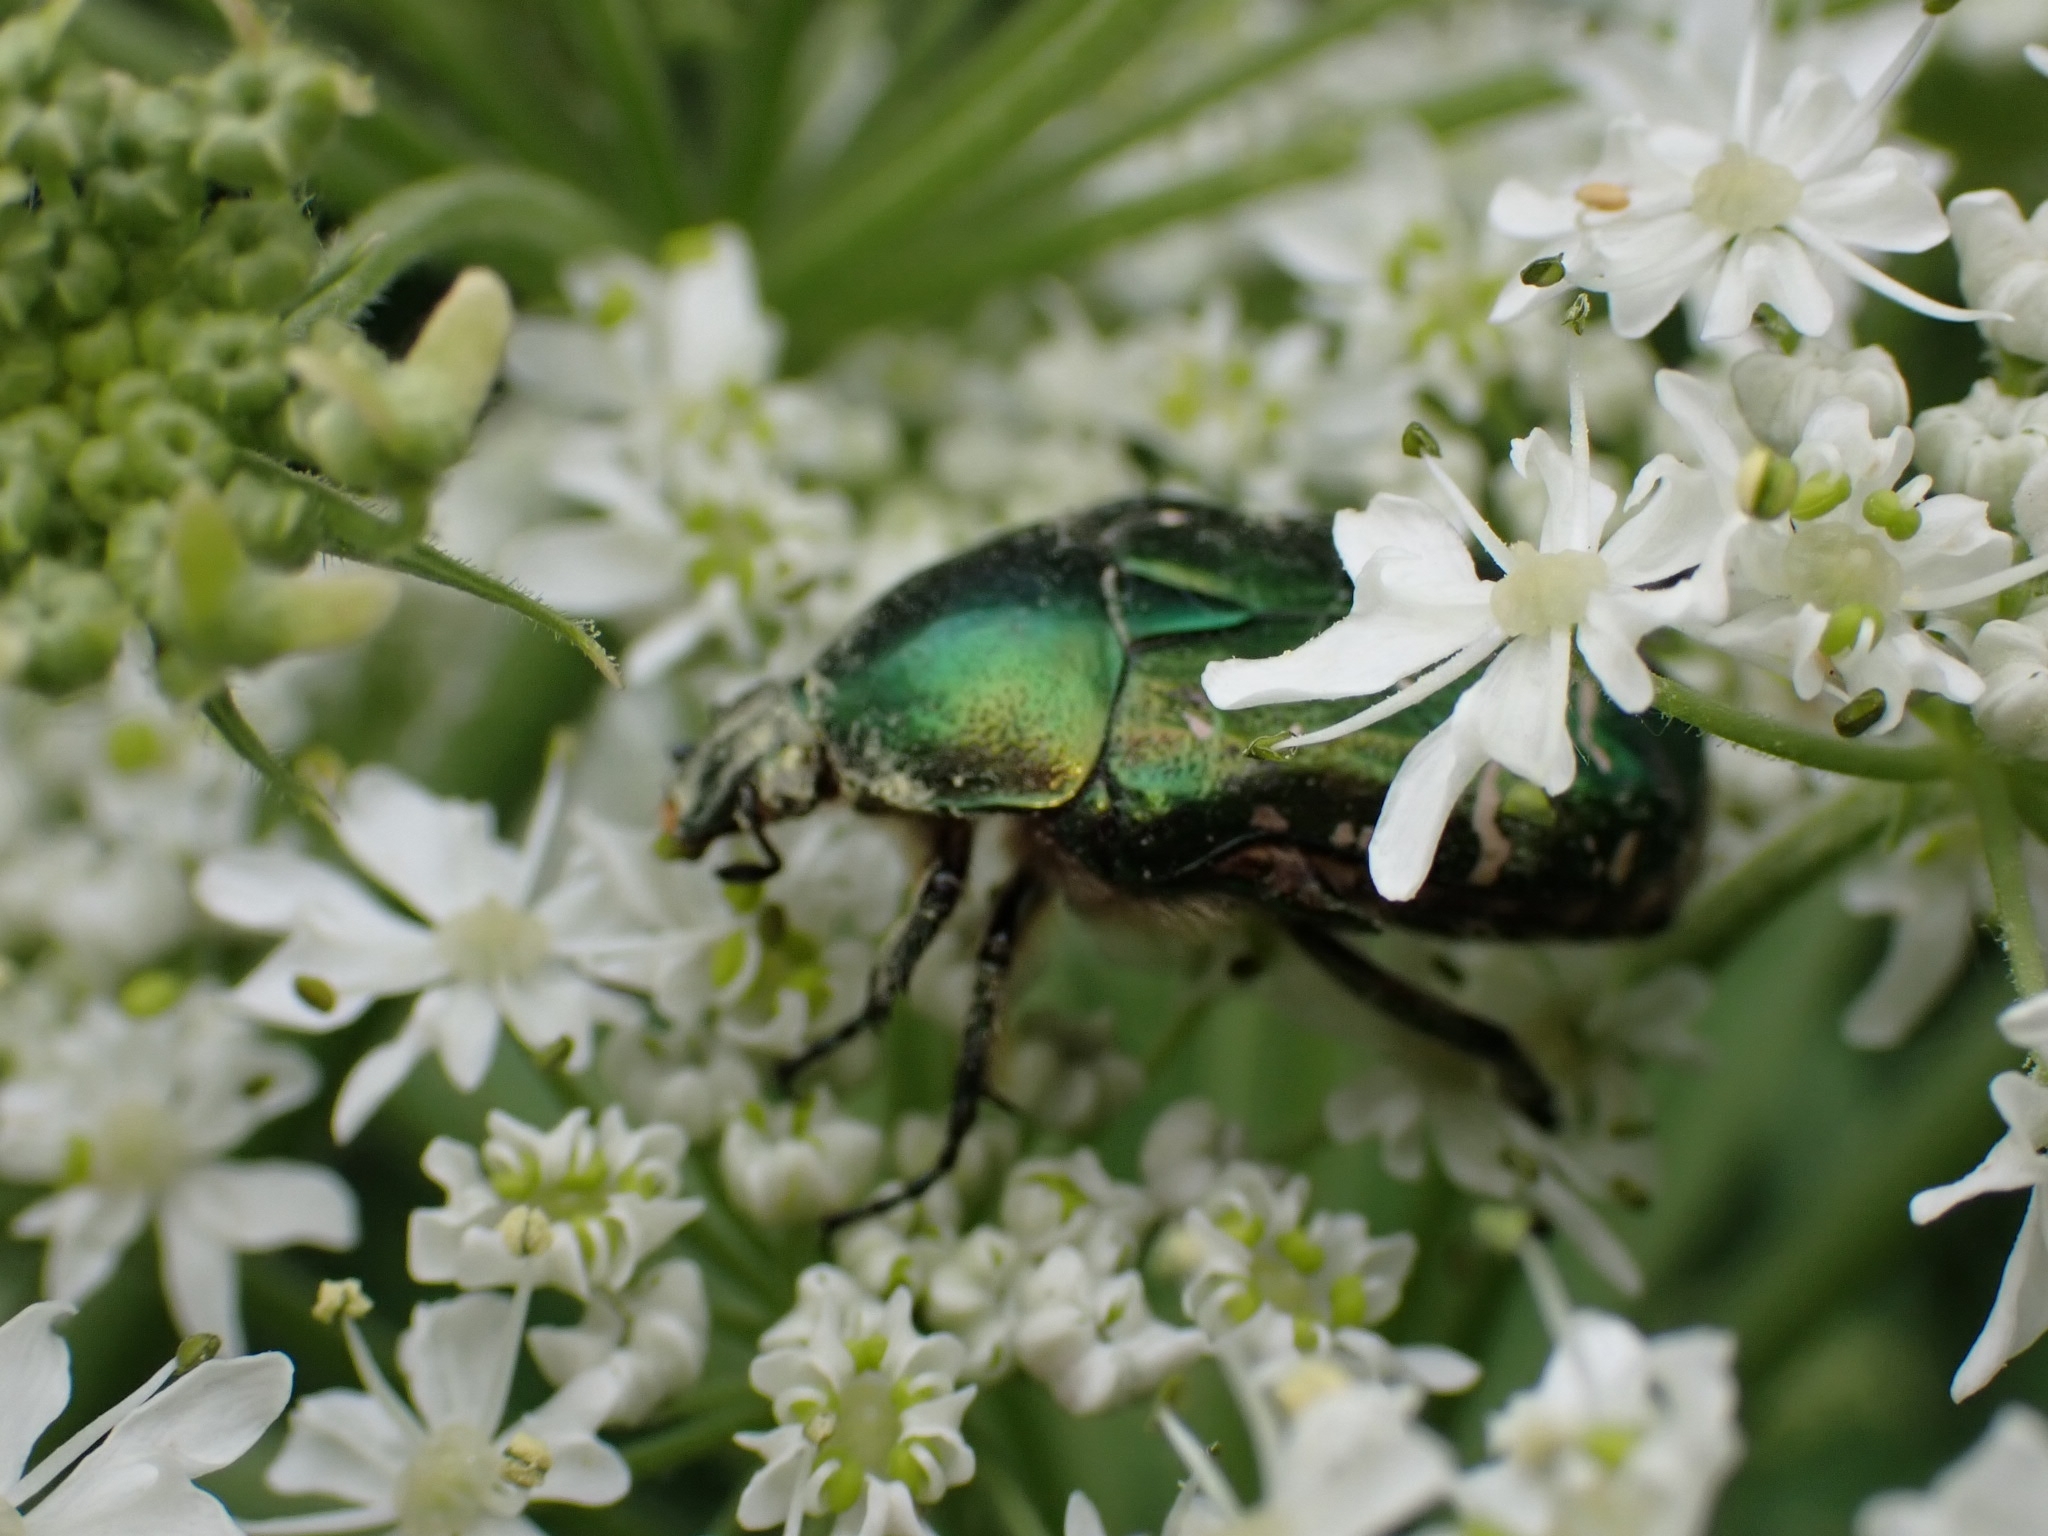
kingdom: Animalia
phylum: Arthropoda
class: Insecta
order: Coleoptera
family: Scarabaeidae
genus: Cetonia
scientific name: Cetonia aurata
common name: Rose chafer
